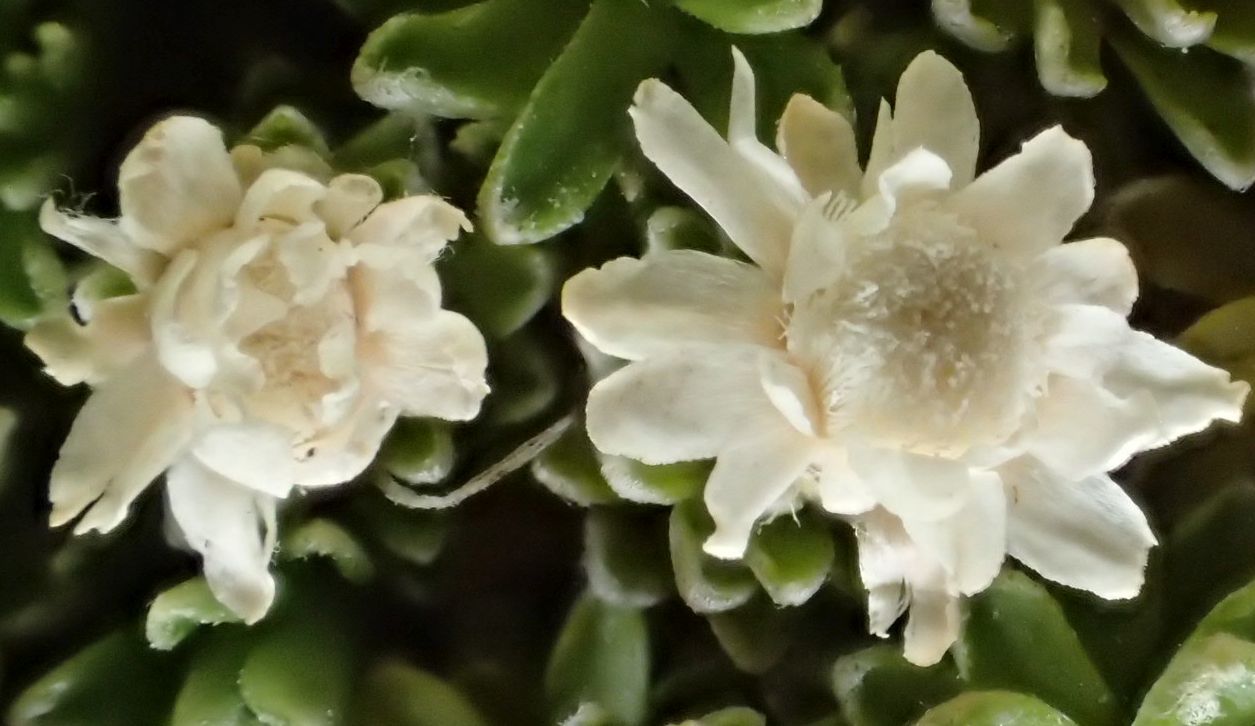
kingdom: Plantae
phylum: Tracheophyta
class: Magnoliopsida
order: Asterales
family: Asteraceae
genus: Raoulia
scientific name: Raoulia subsericea
